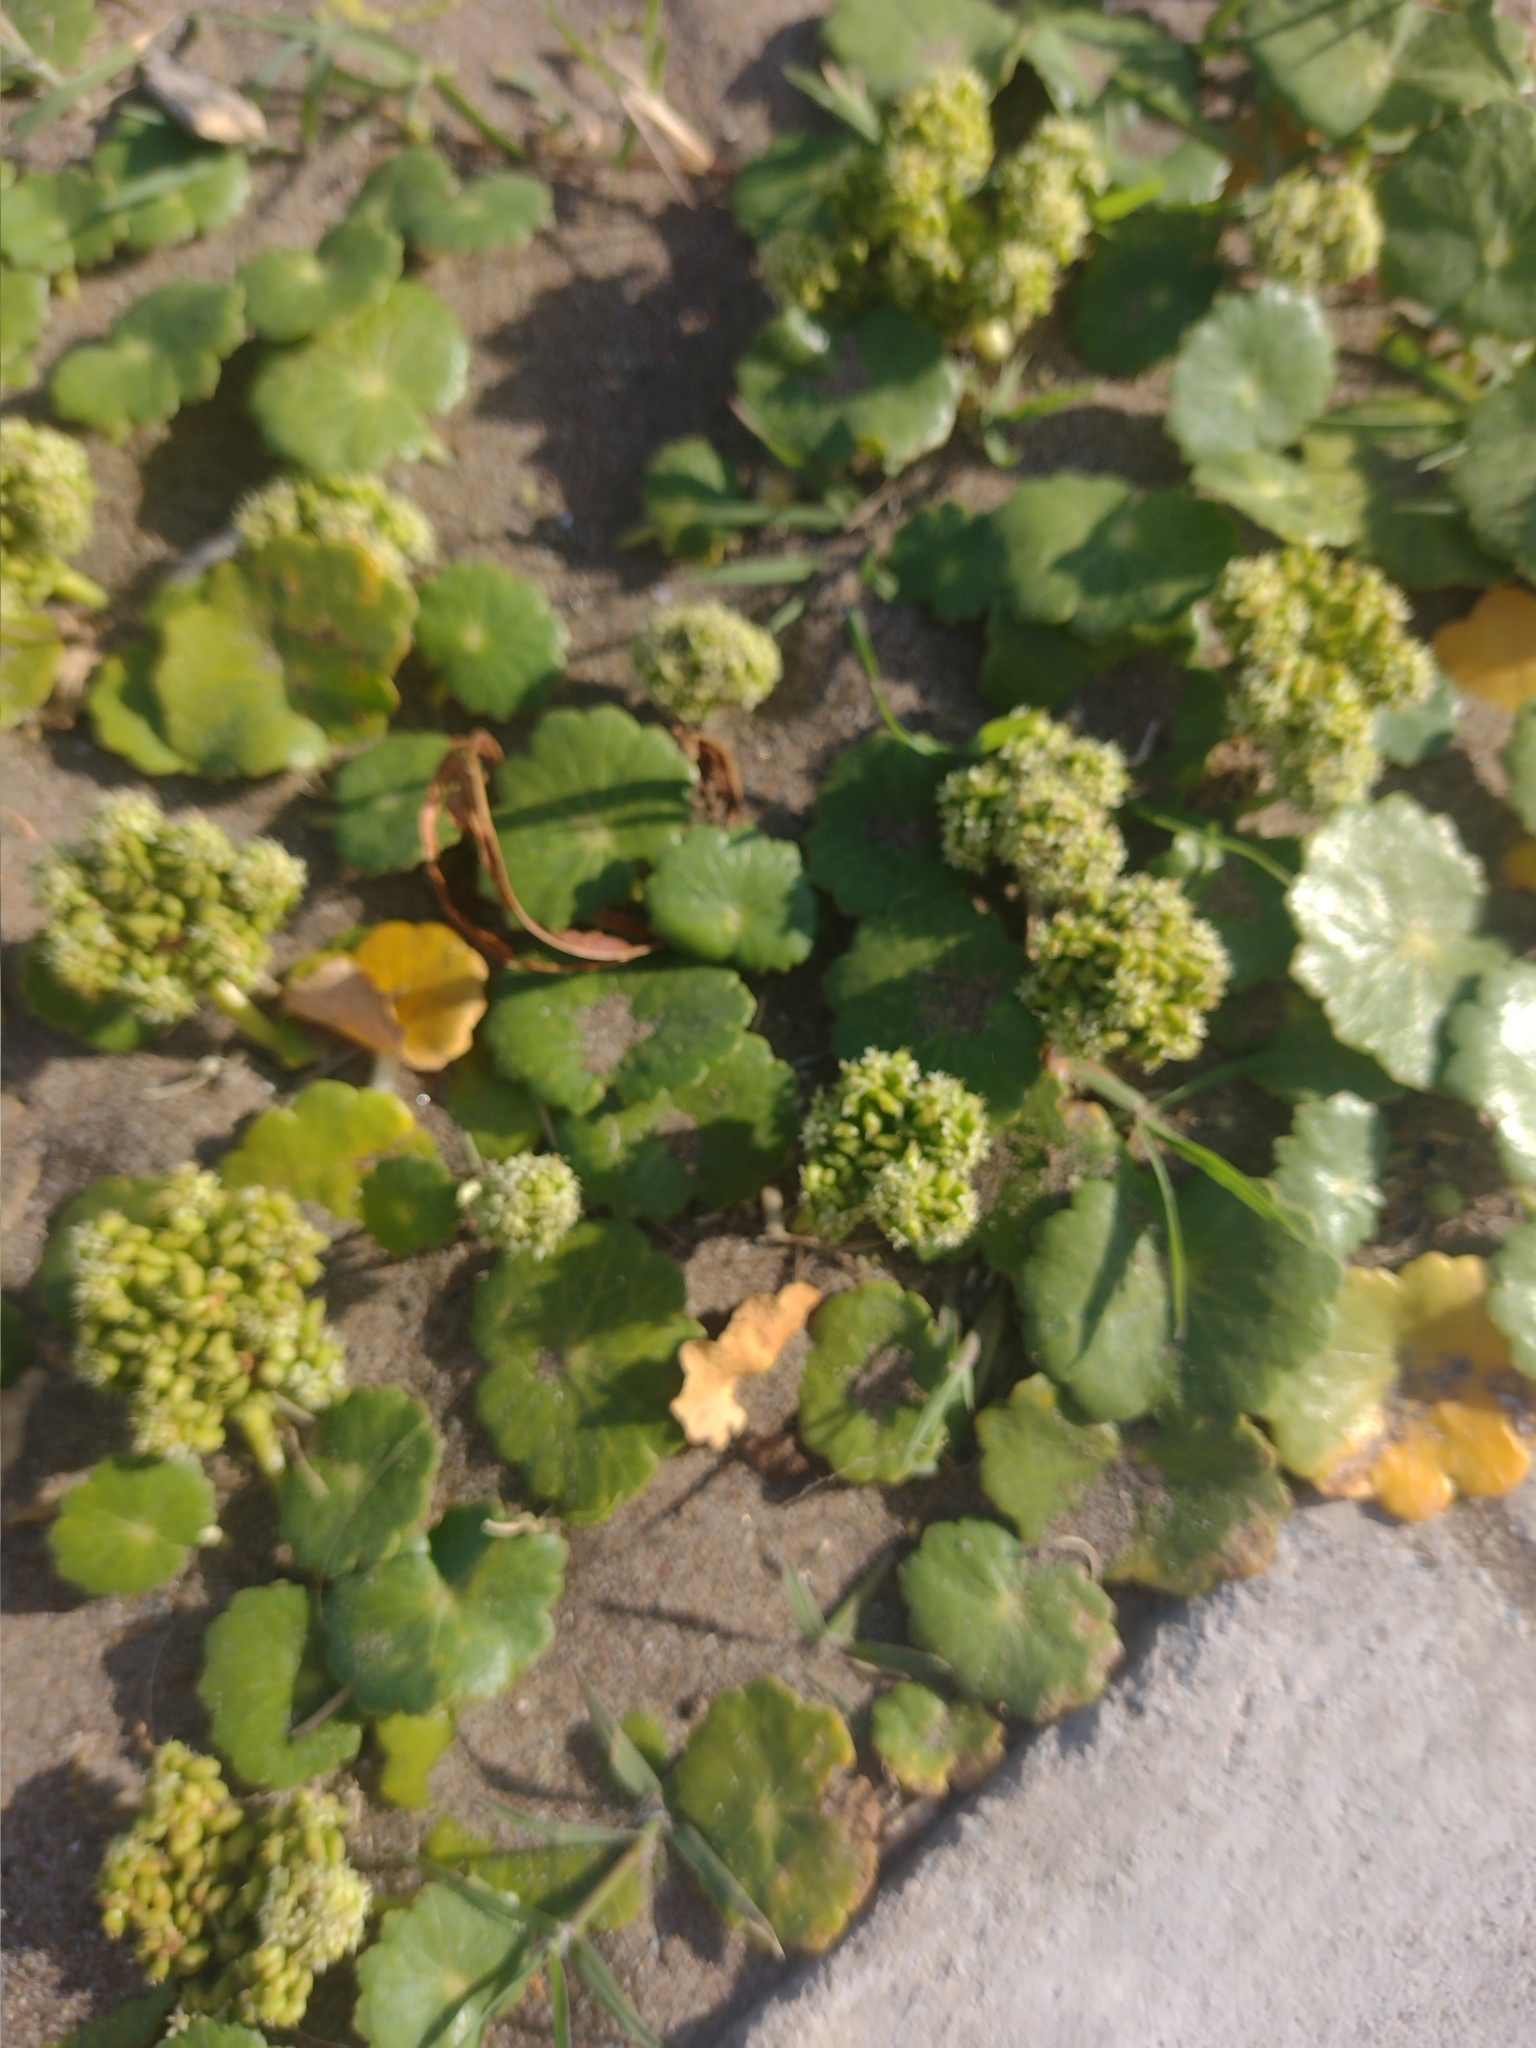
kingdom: Plantae
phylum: Tracheophyta
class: Magnoliopsida
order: Apiales
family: Araliaceae
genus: Hydrocotyle
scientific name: Hydrocotyle bonariensis
